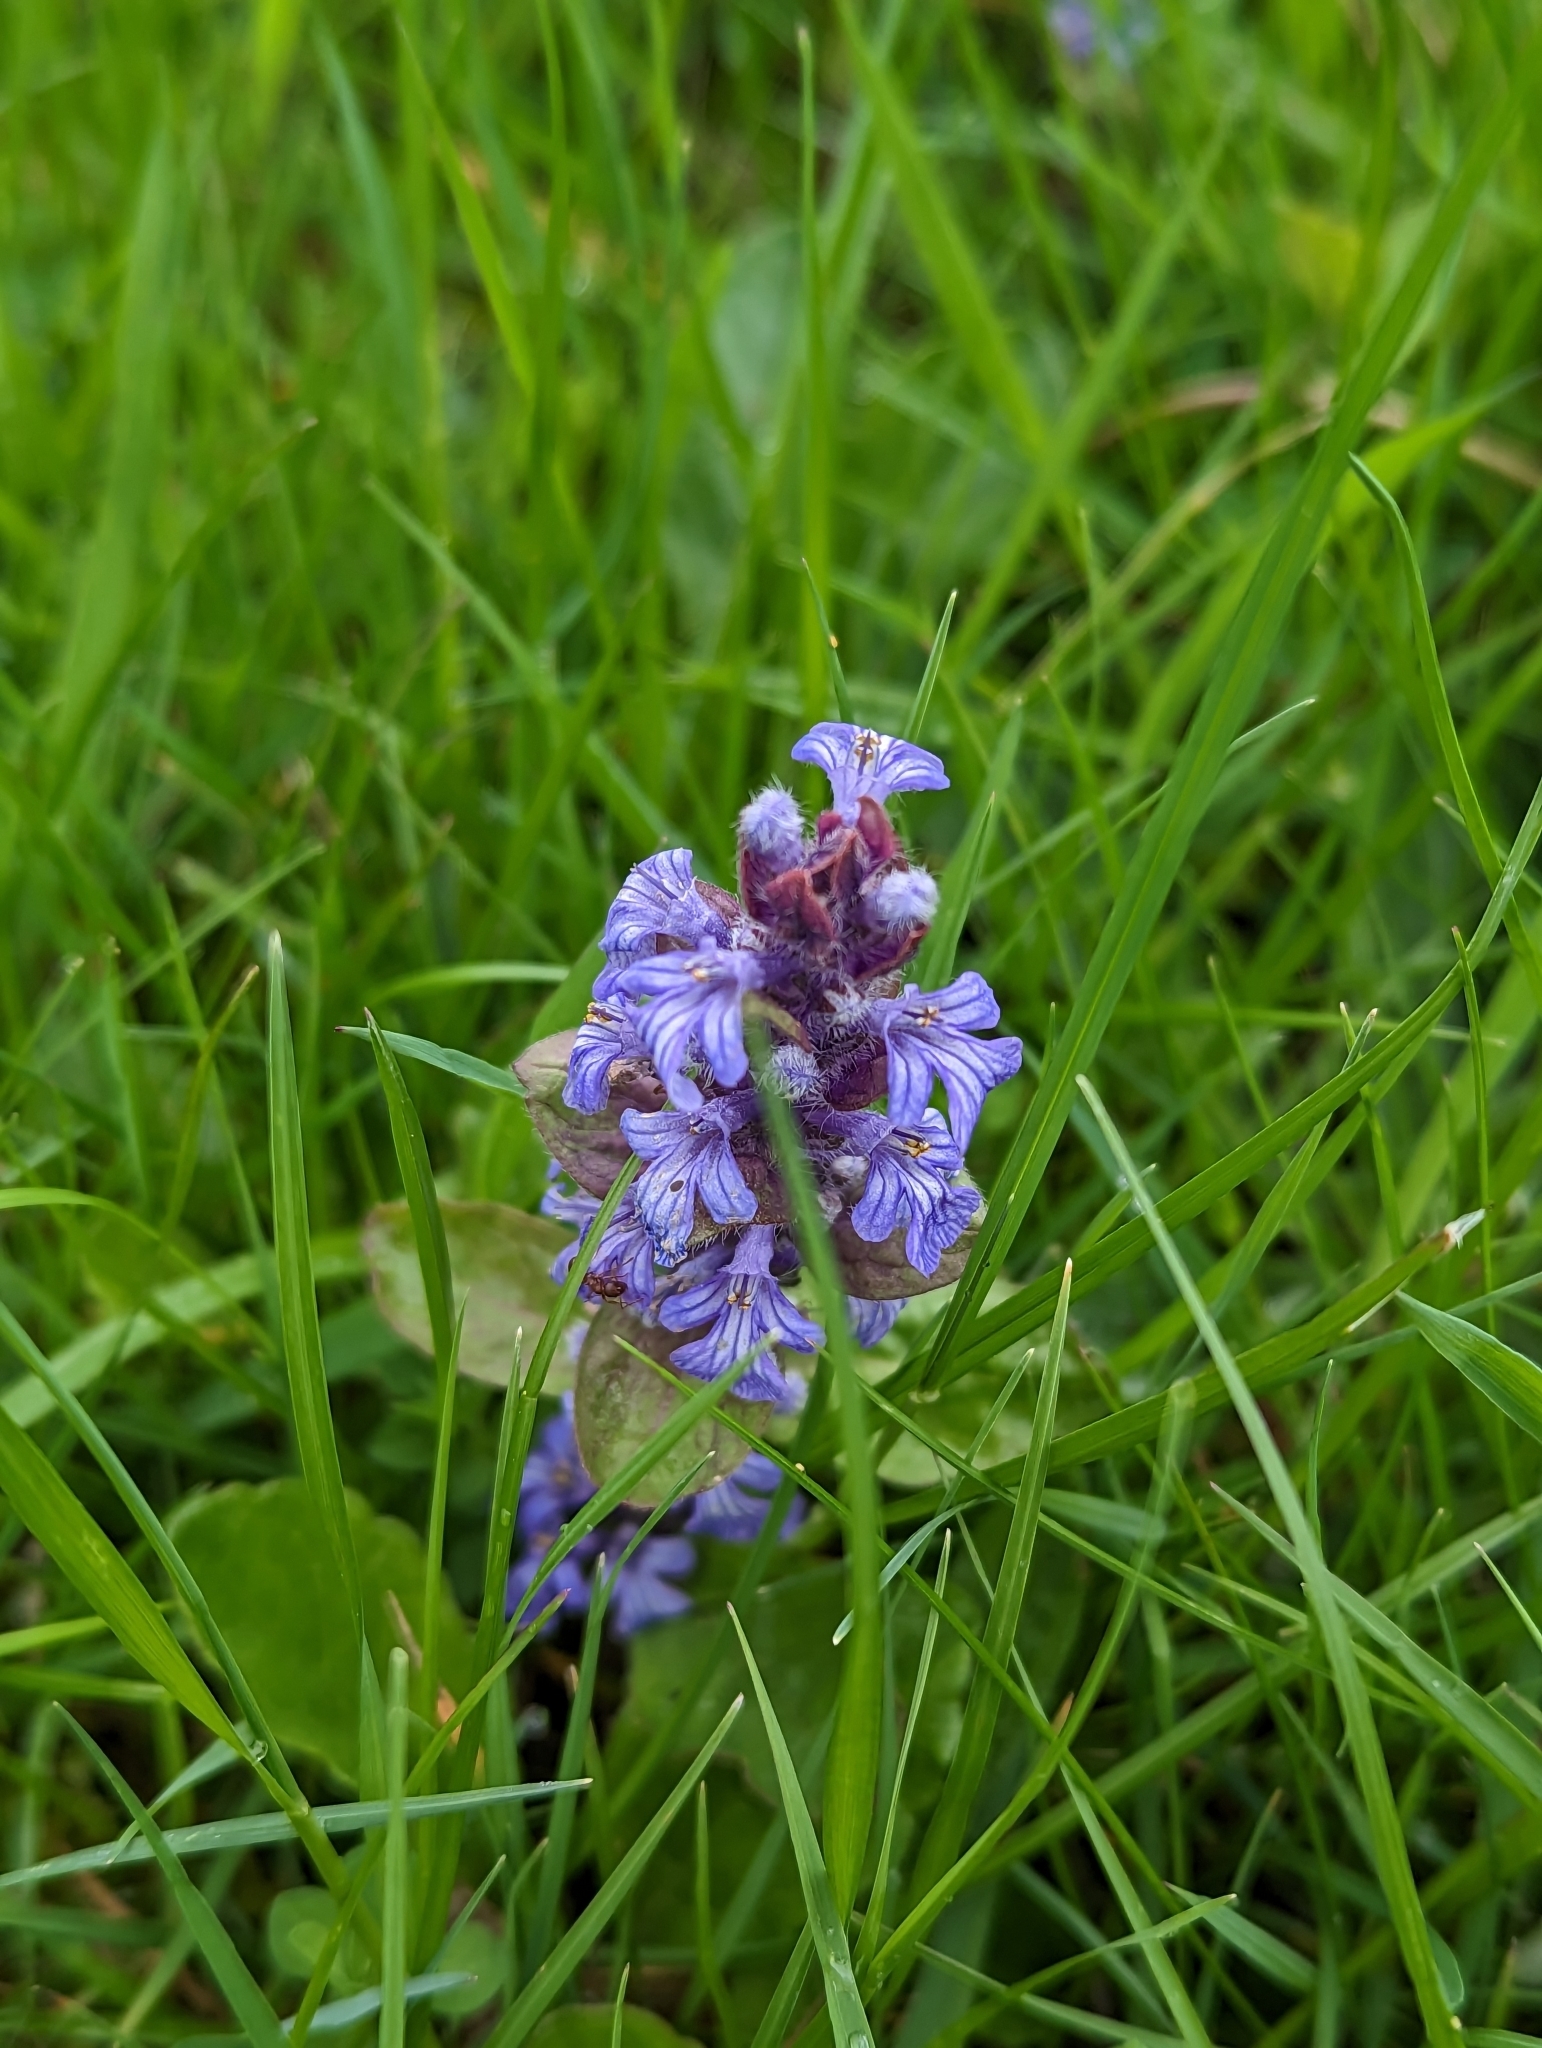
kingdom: Plantae
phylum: Tracheophyta
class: Magnoliopsida
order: Lamiales
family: Lamiaceae
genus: Ajuga
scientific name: Ajuga reptans
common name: Bugle
